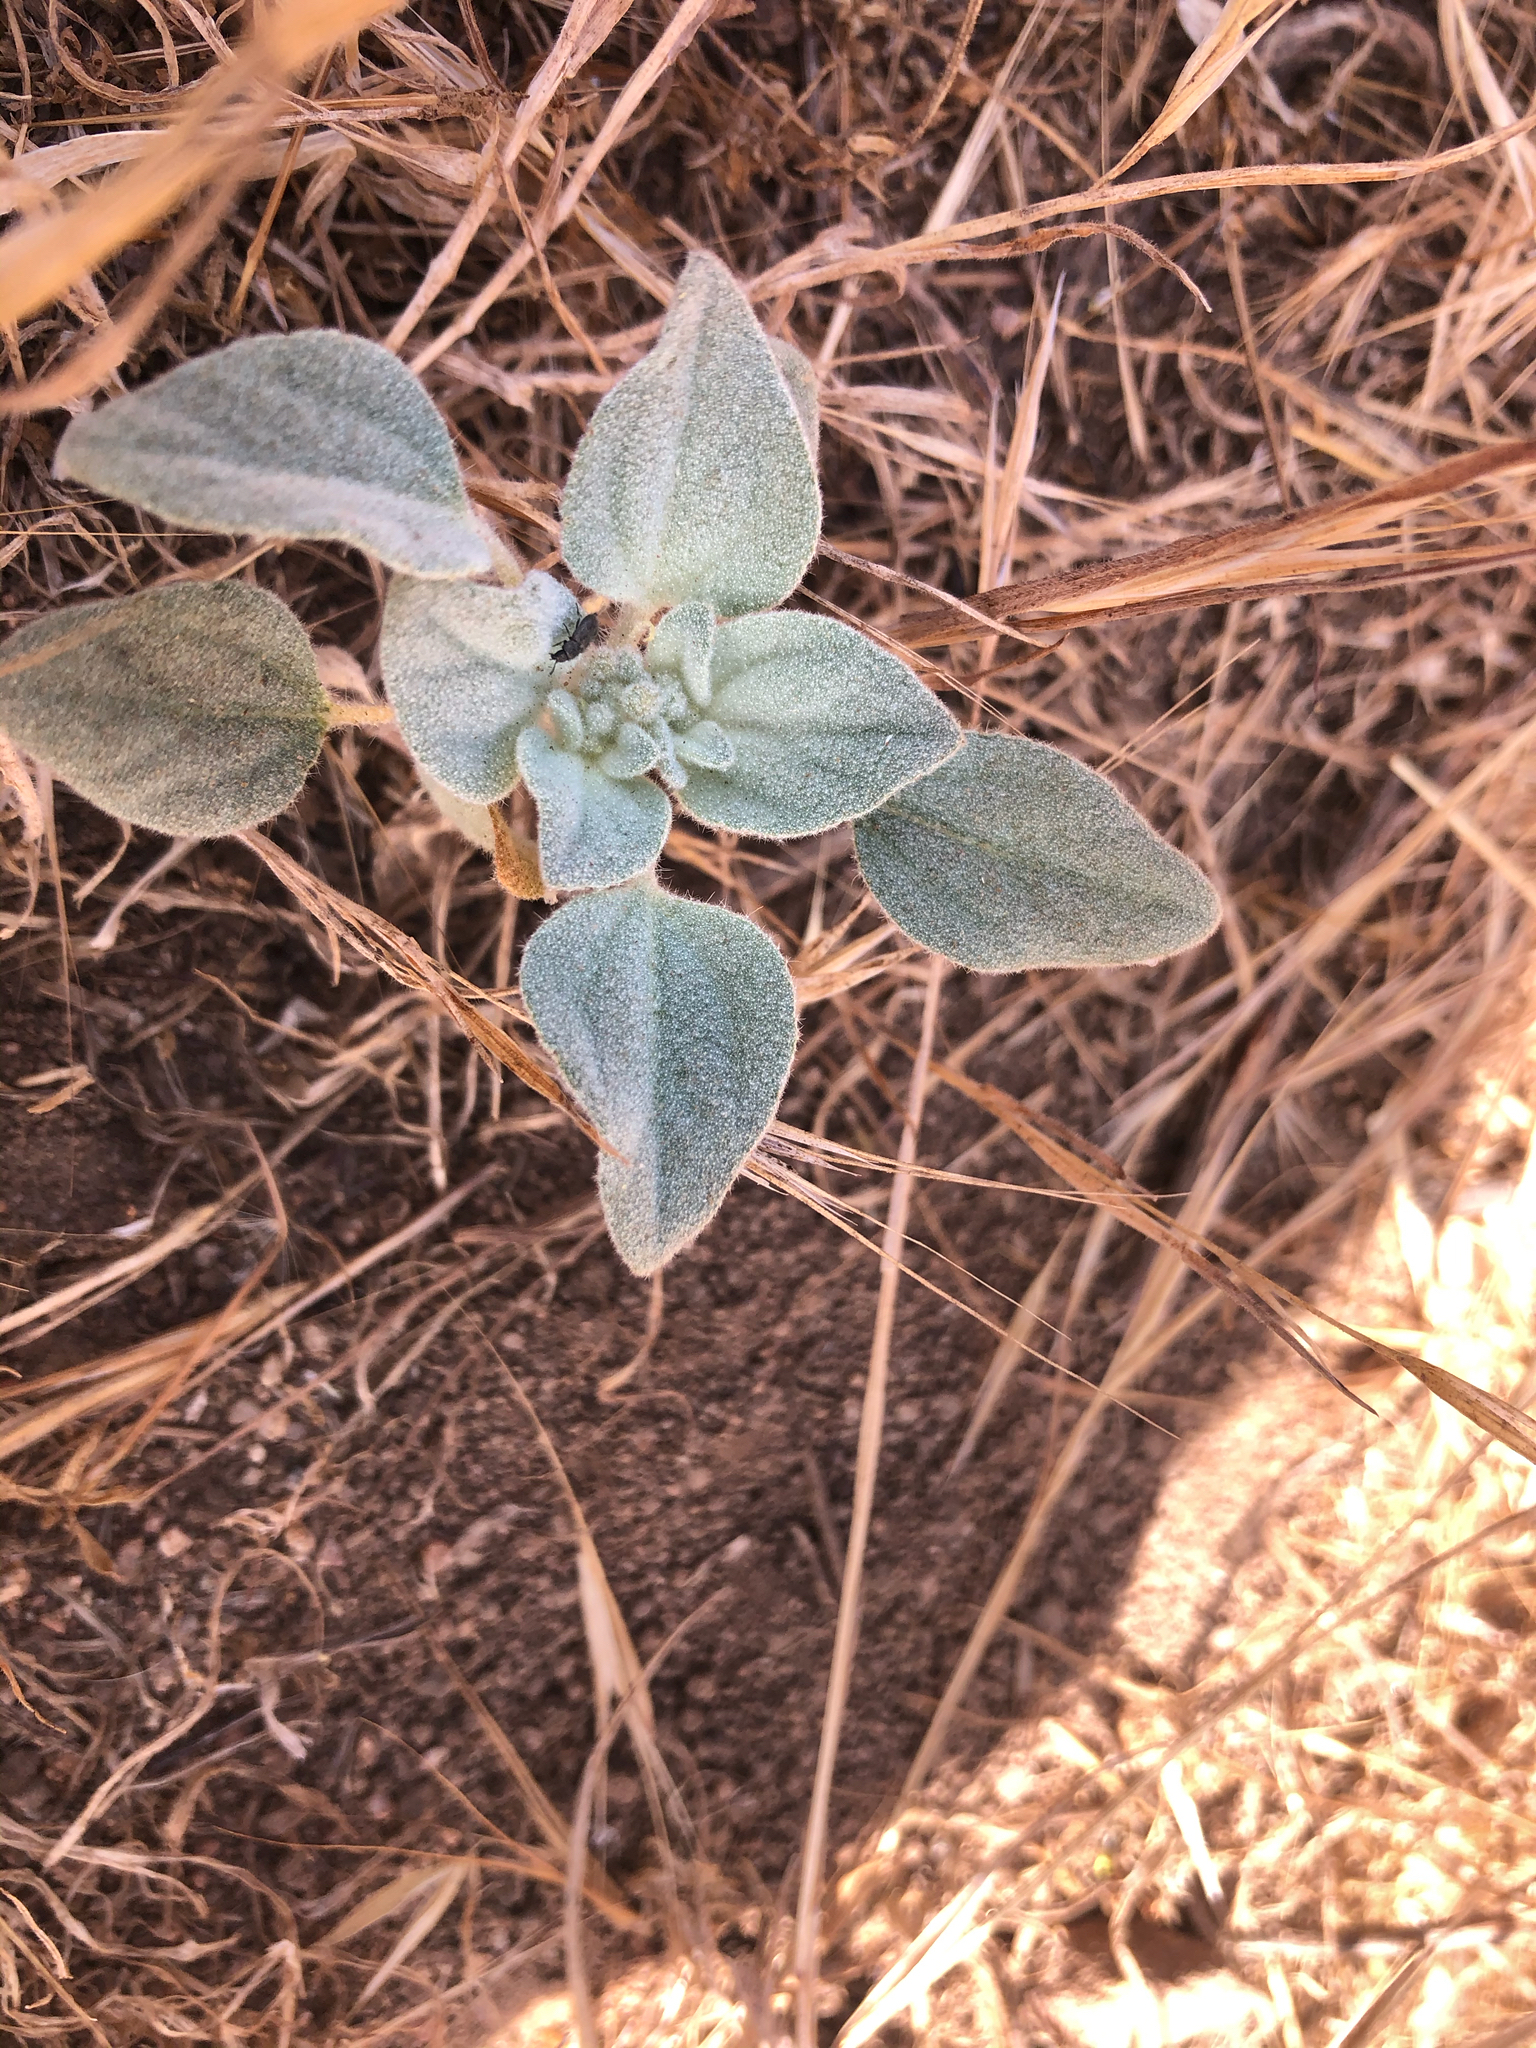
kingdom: Plantae
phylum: Tracheophyta
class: Magnoliopsida
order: Malpighiales
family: Euphorbiaceae
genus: Croton
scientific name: Croton setiger
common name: Dove weed
